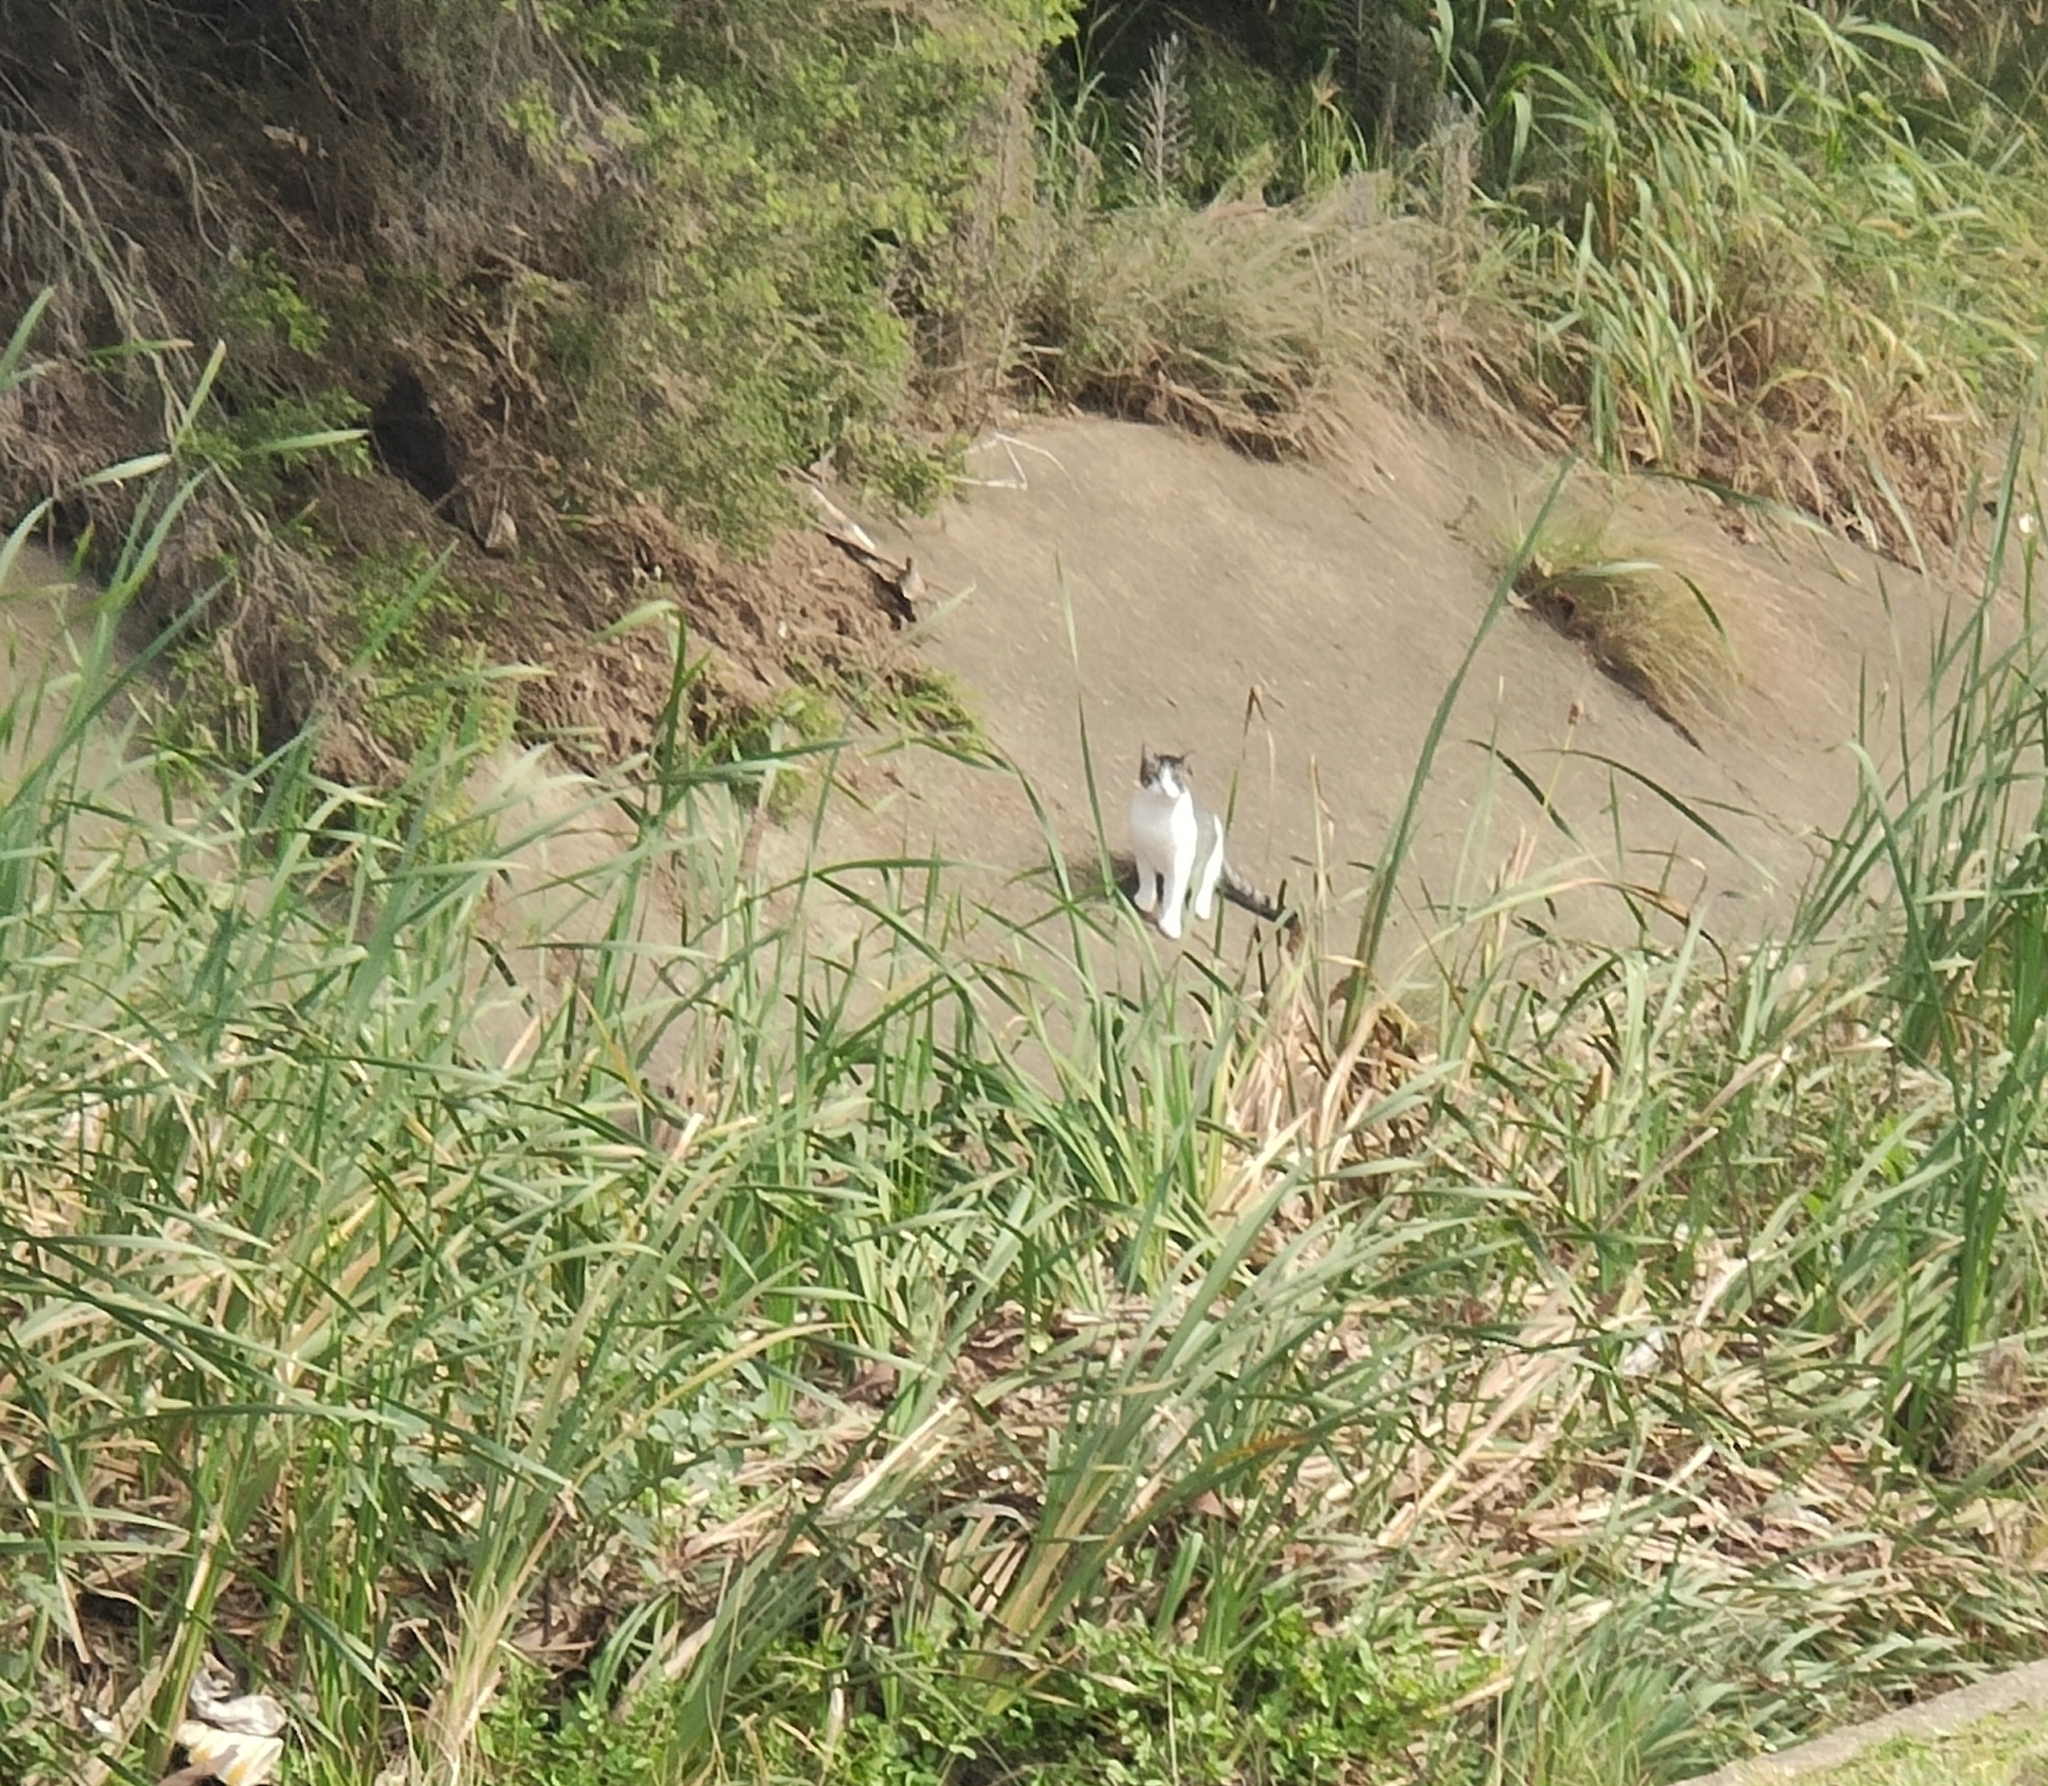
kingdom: Animalia
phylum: Chordata
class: Mammalia
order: Carnivora
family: Felidae
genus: Felis
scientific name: Felis catus
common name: Domestic cat
